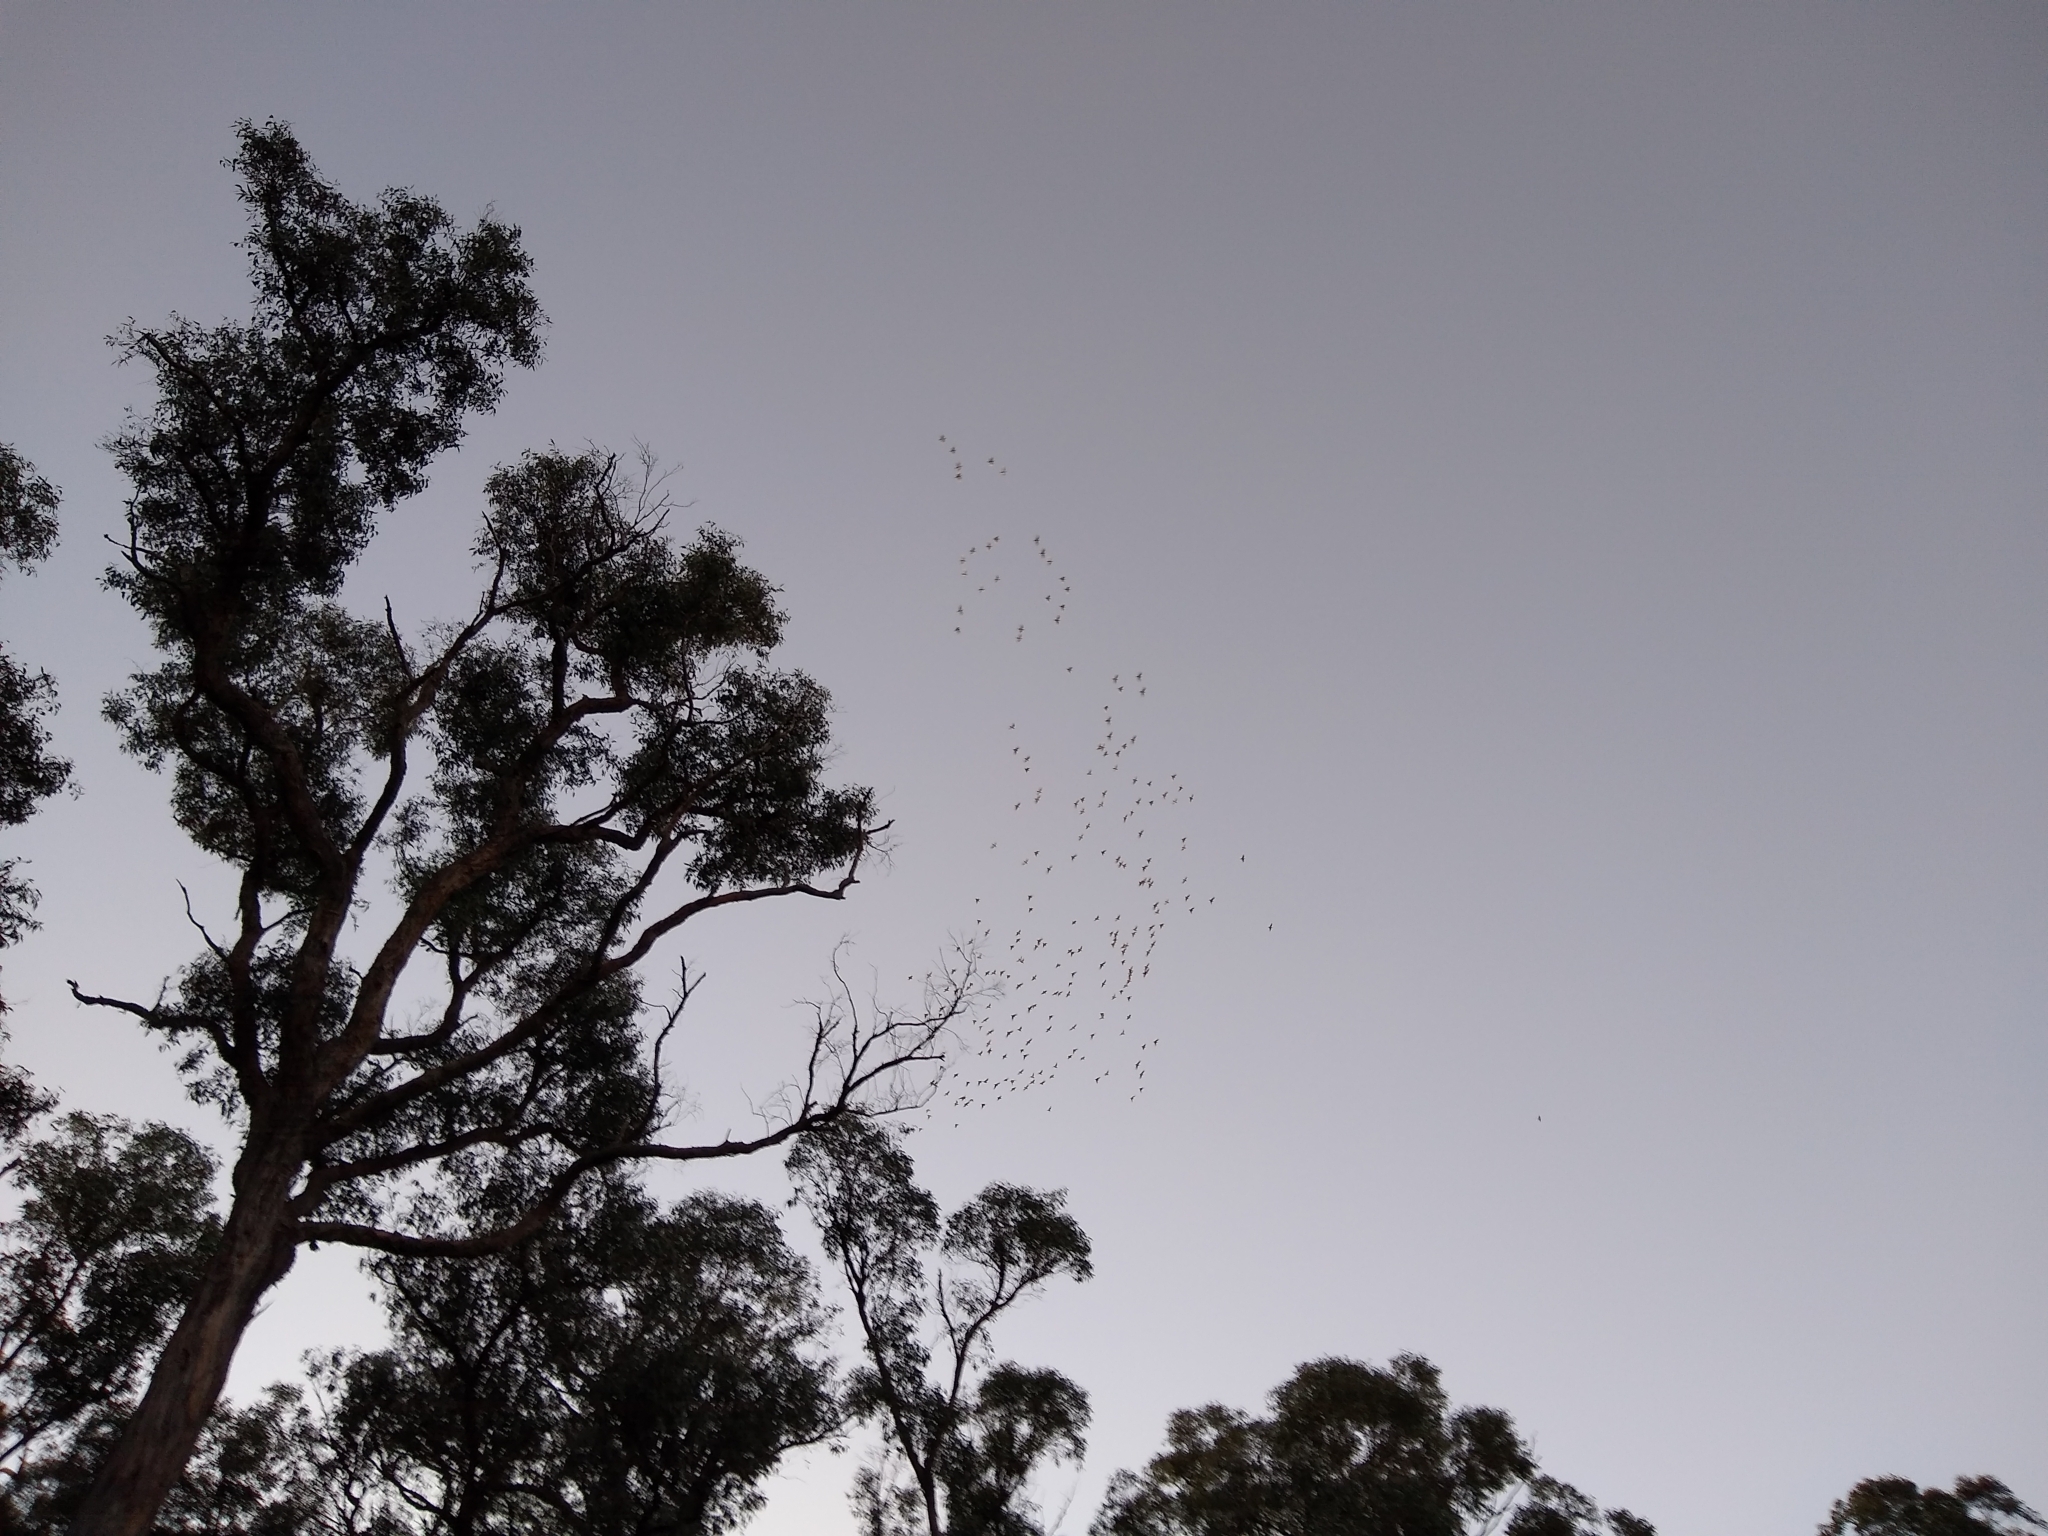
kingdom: Animalia
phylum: Chordata
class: Aves
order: Psittaciformes
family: Psittacidae
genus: Cacatua
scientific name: Cacatua tenuirostris
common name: Long-billed corella
